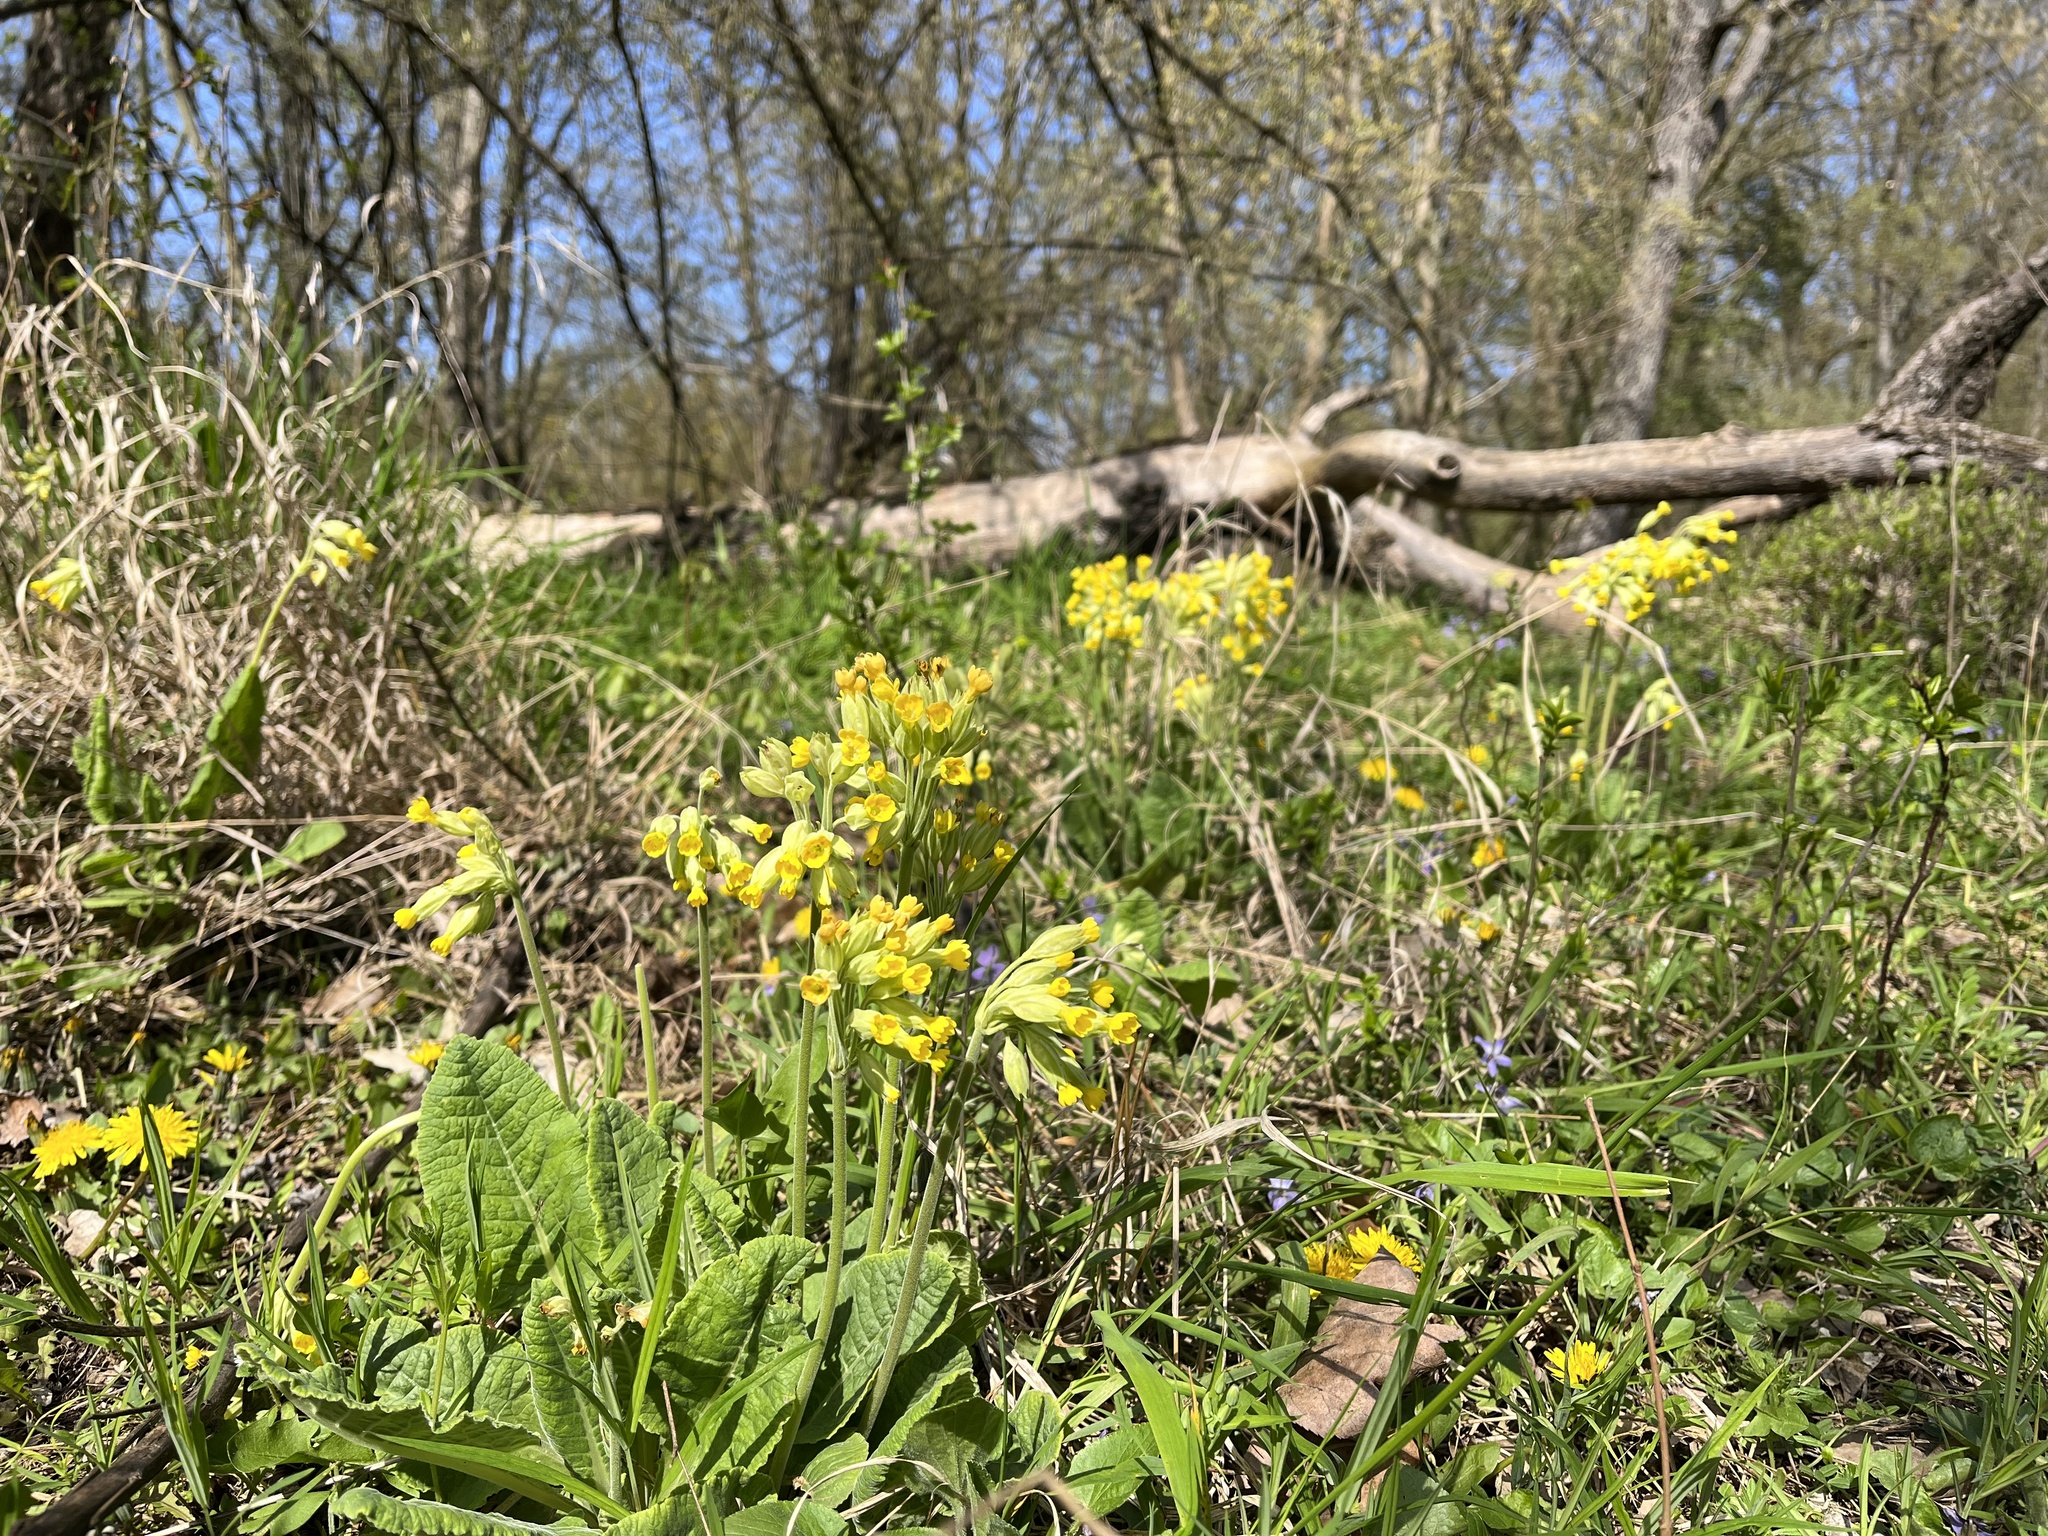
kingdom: Plantae
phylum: Tracheophyta
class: Magnoliopsida
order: Ericales
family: Primulaceae
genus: Primula
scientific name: Primula veris
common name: Cowslip
